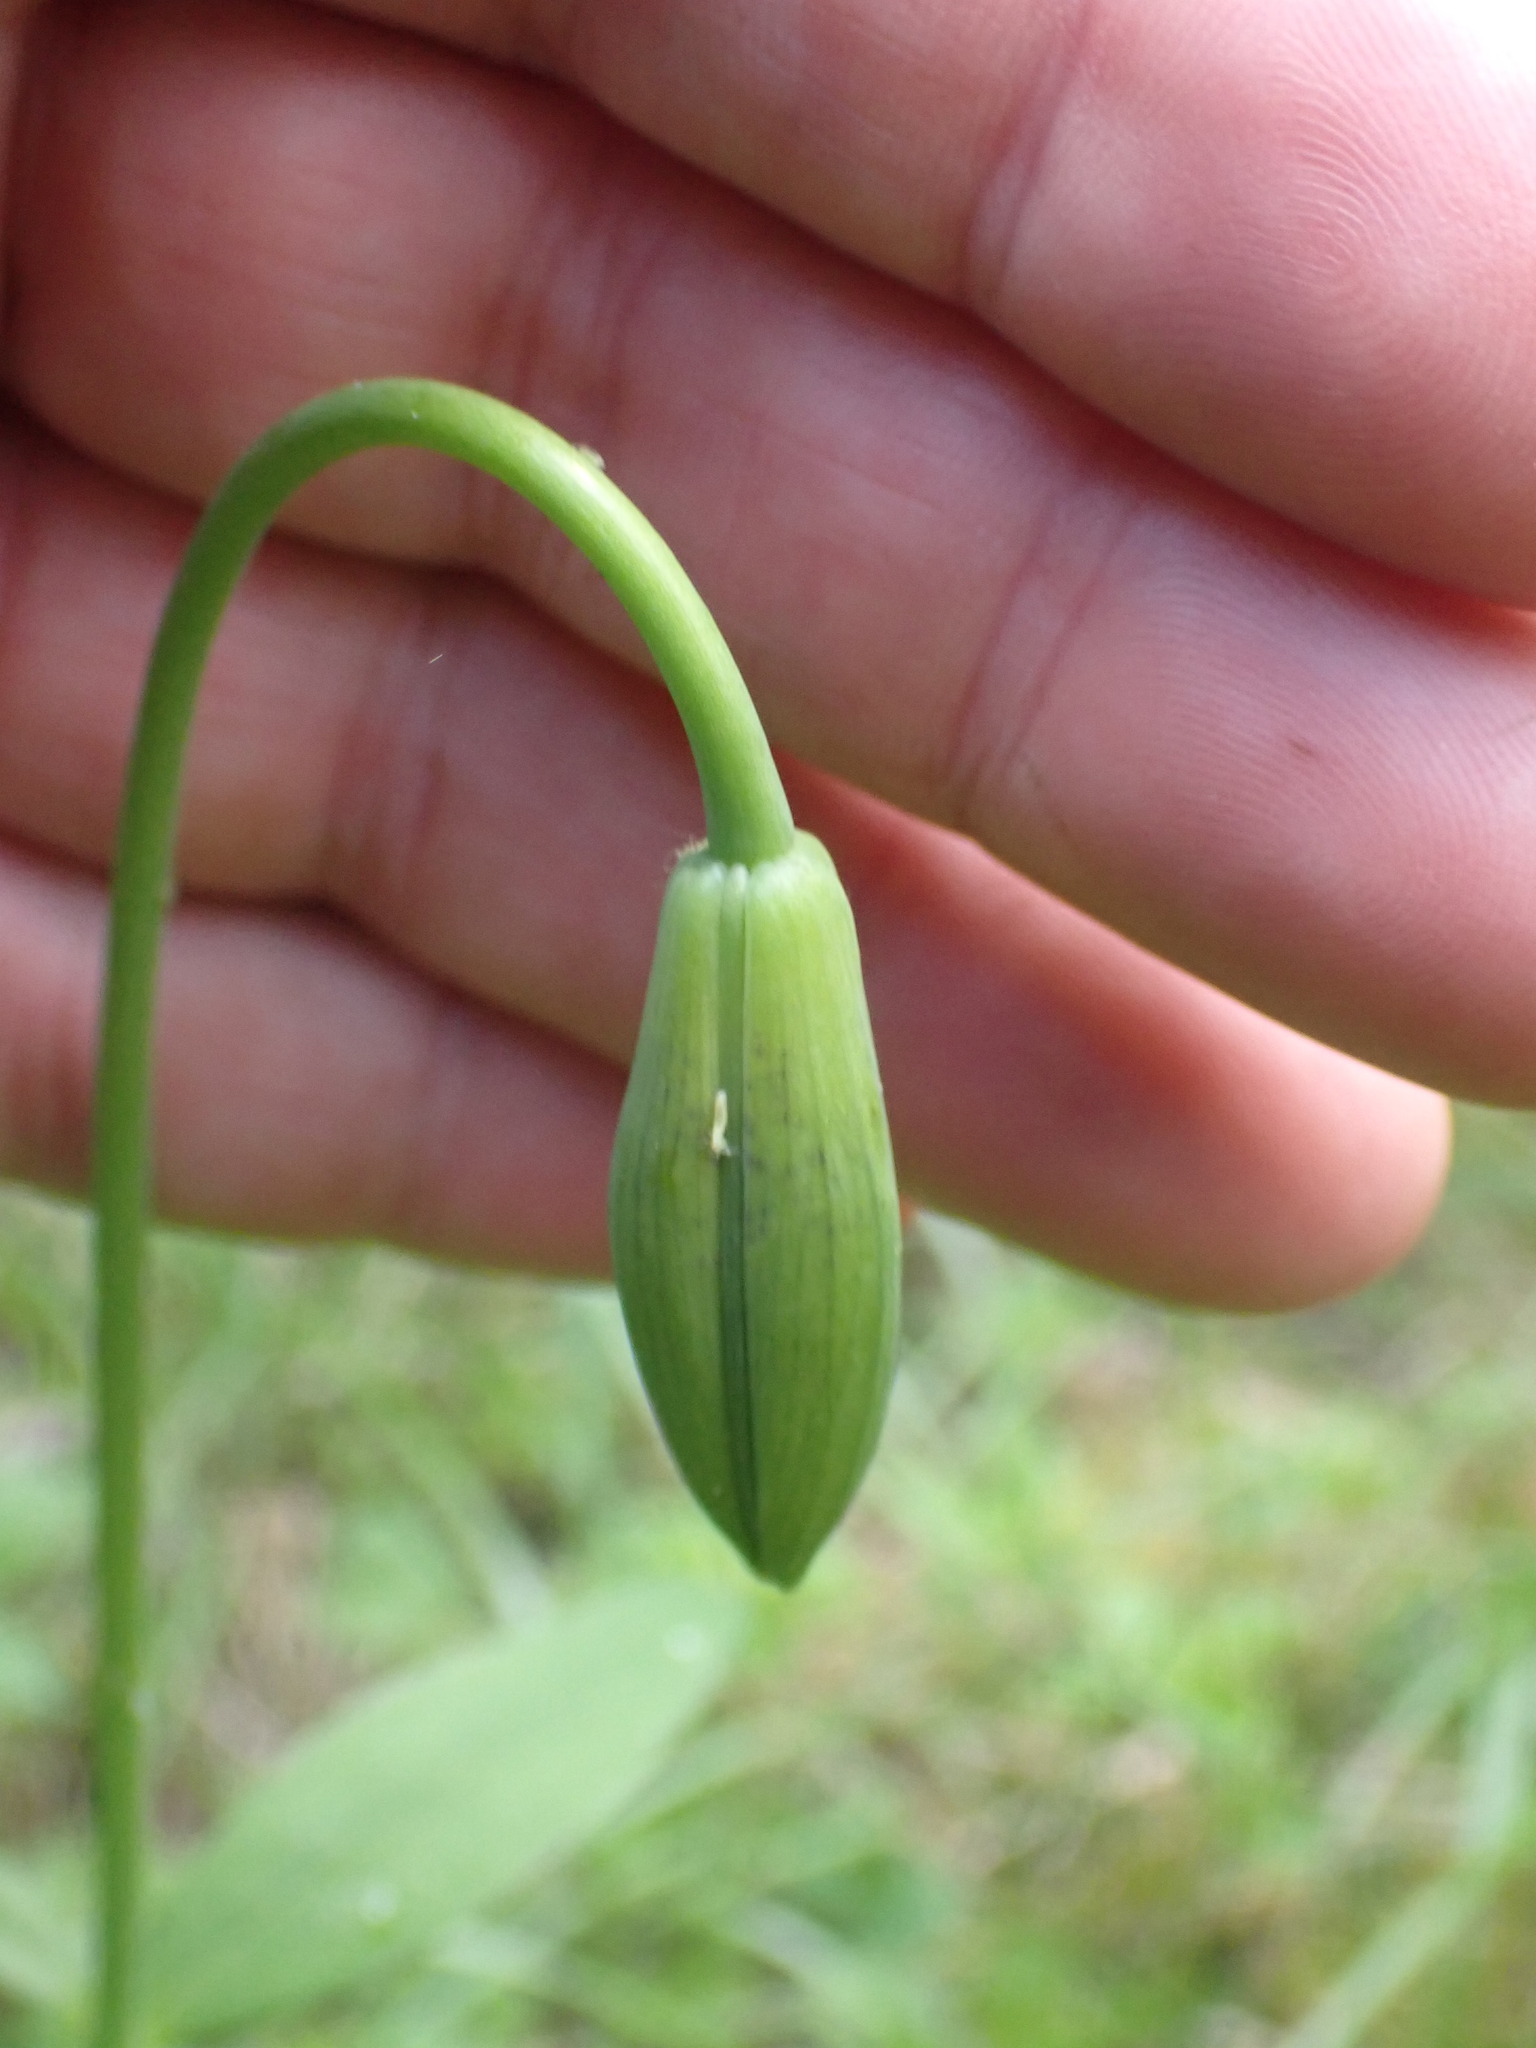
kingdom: Plantae
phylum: Tracheophyta
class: Liliopsida
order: Liliales
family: Liliaceae
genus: Lilium
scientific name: Lilium columbianum
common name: Columbia lily
